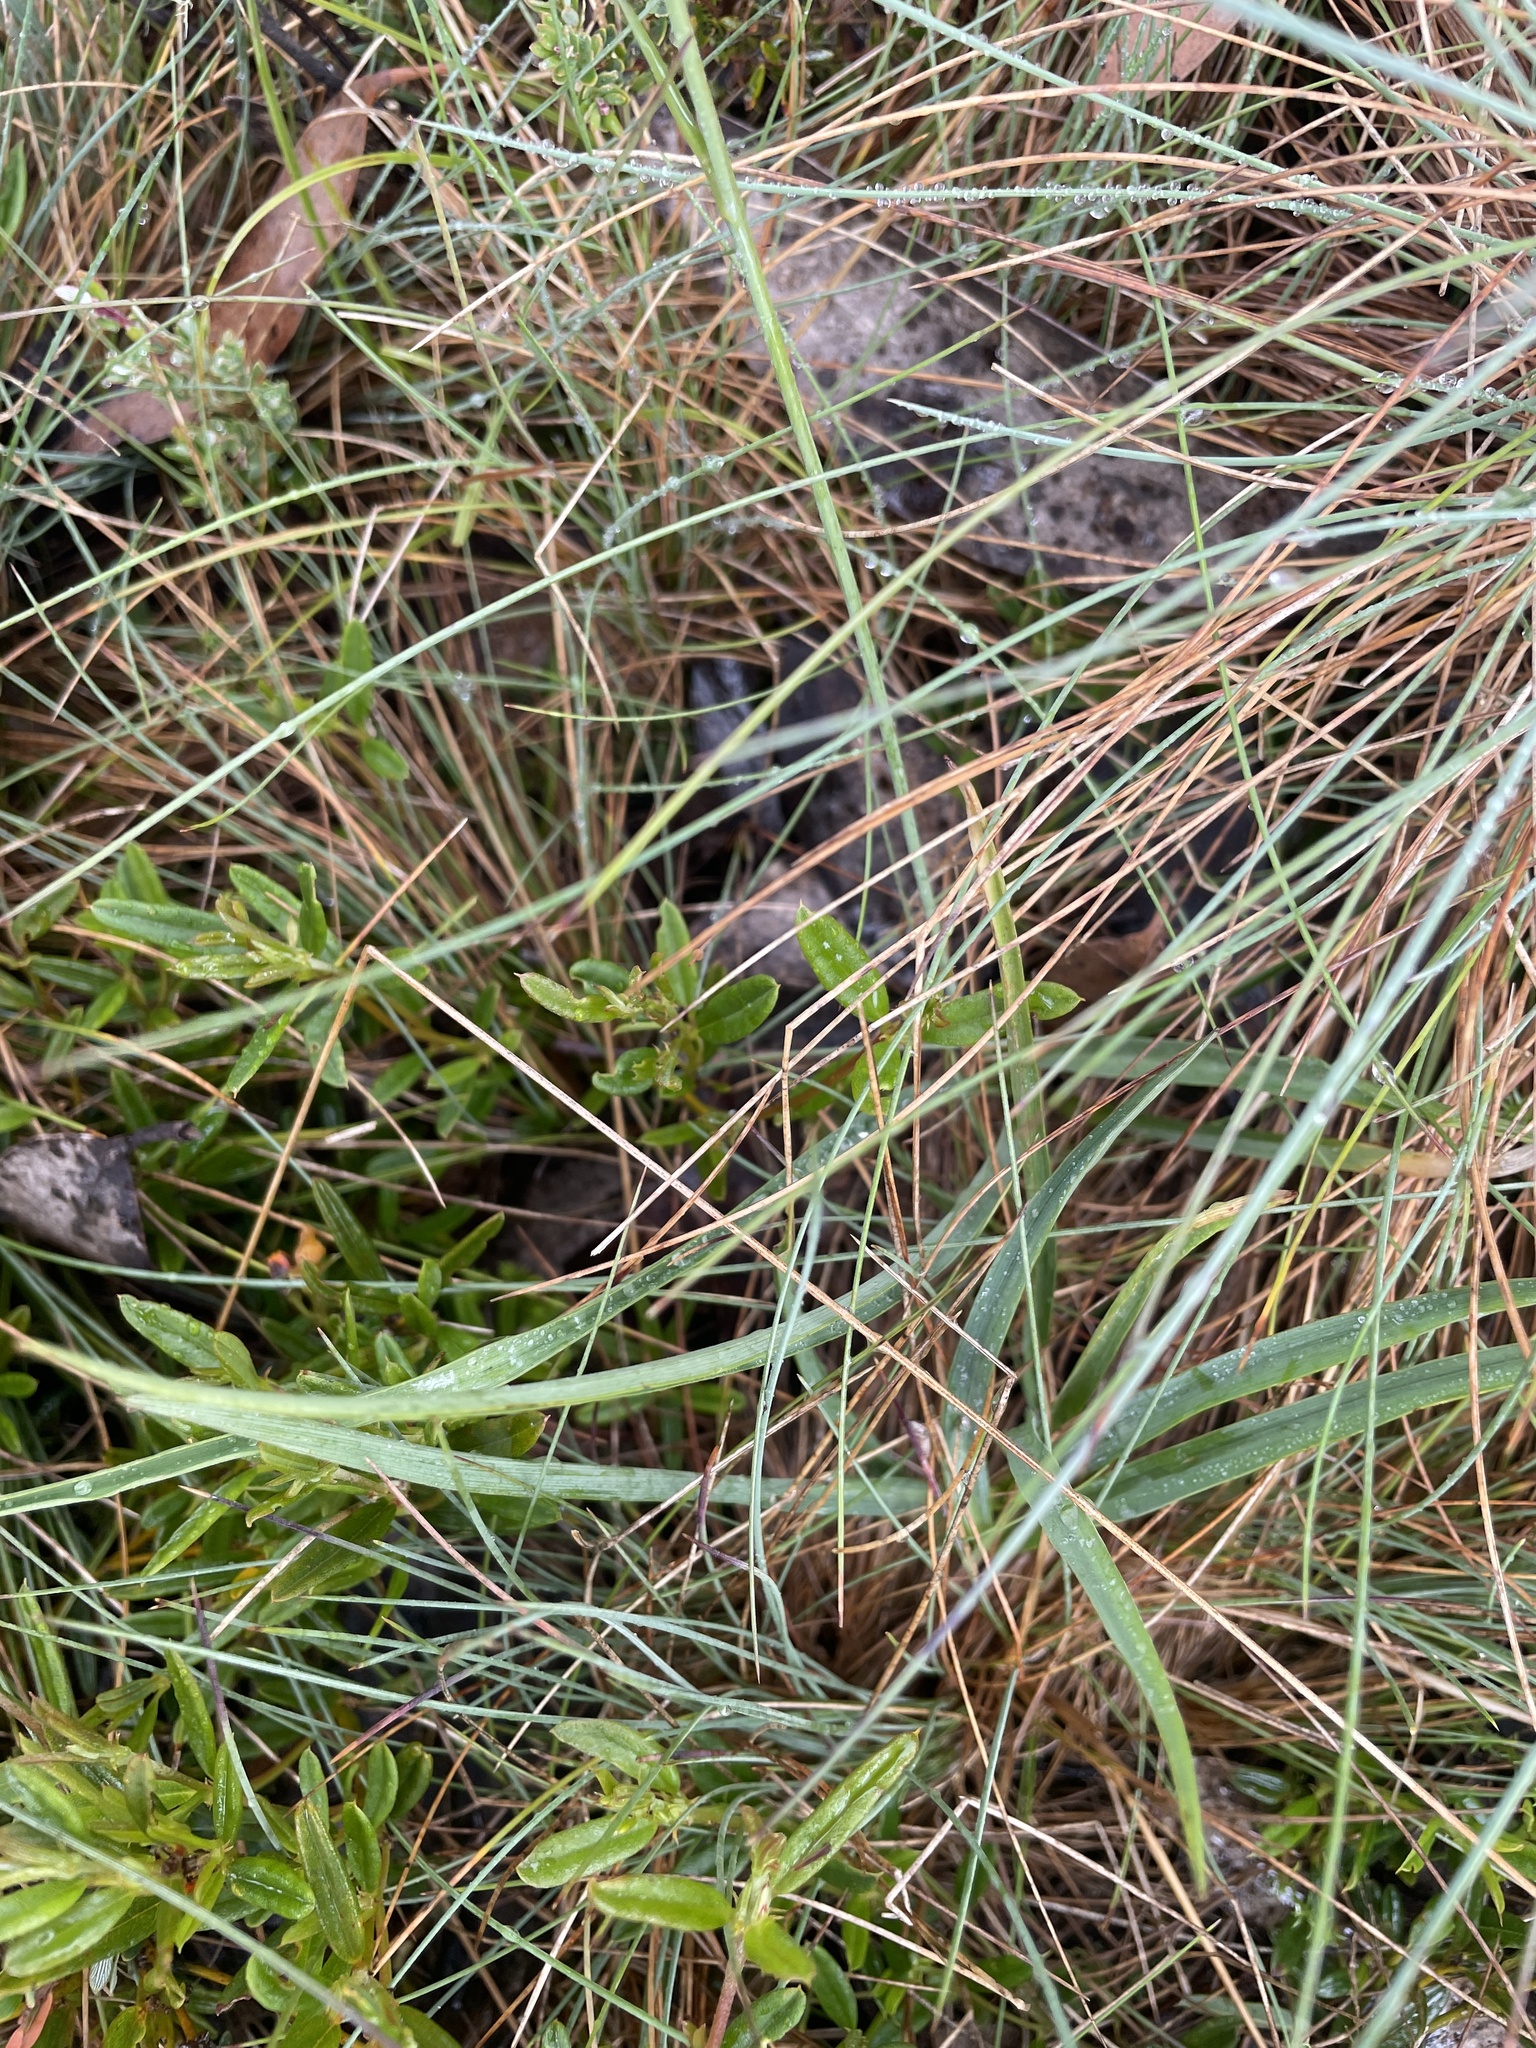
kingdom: Plantae
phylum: Tracheophyta
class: Liliopsida
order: Asparagales
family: Asparagaceae
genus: Arthropodium
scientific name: Arthropodium milleflorum
